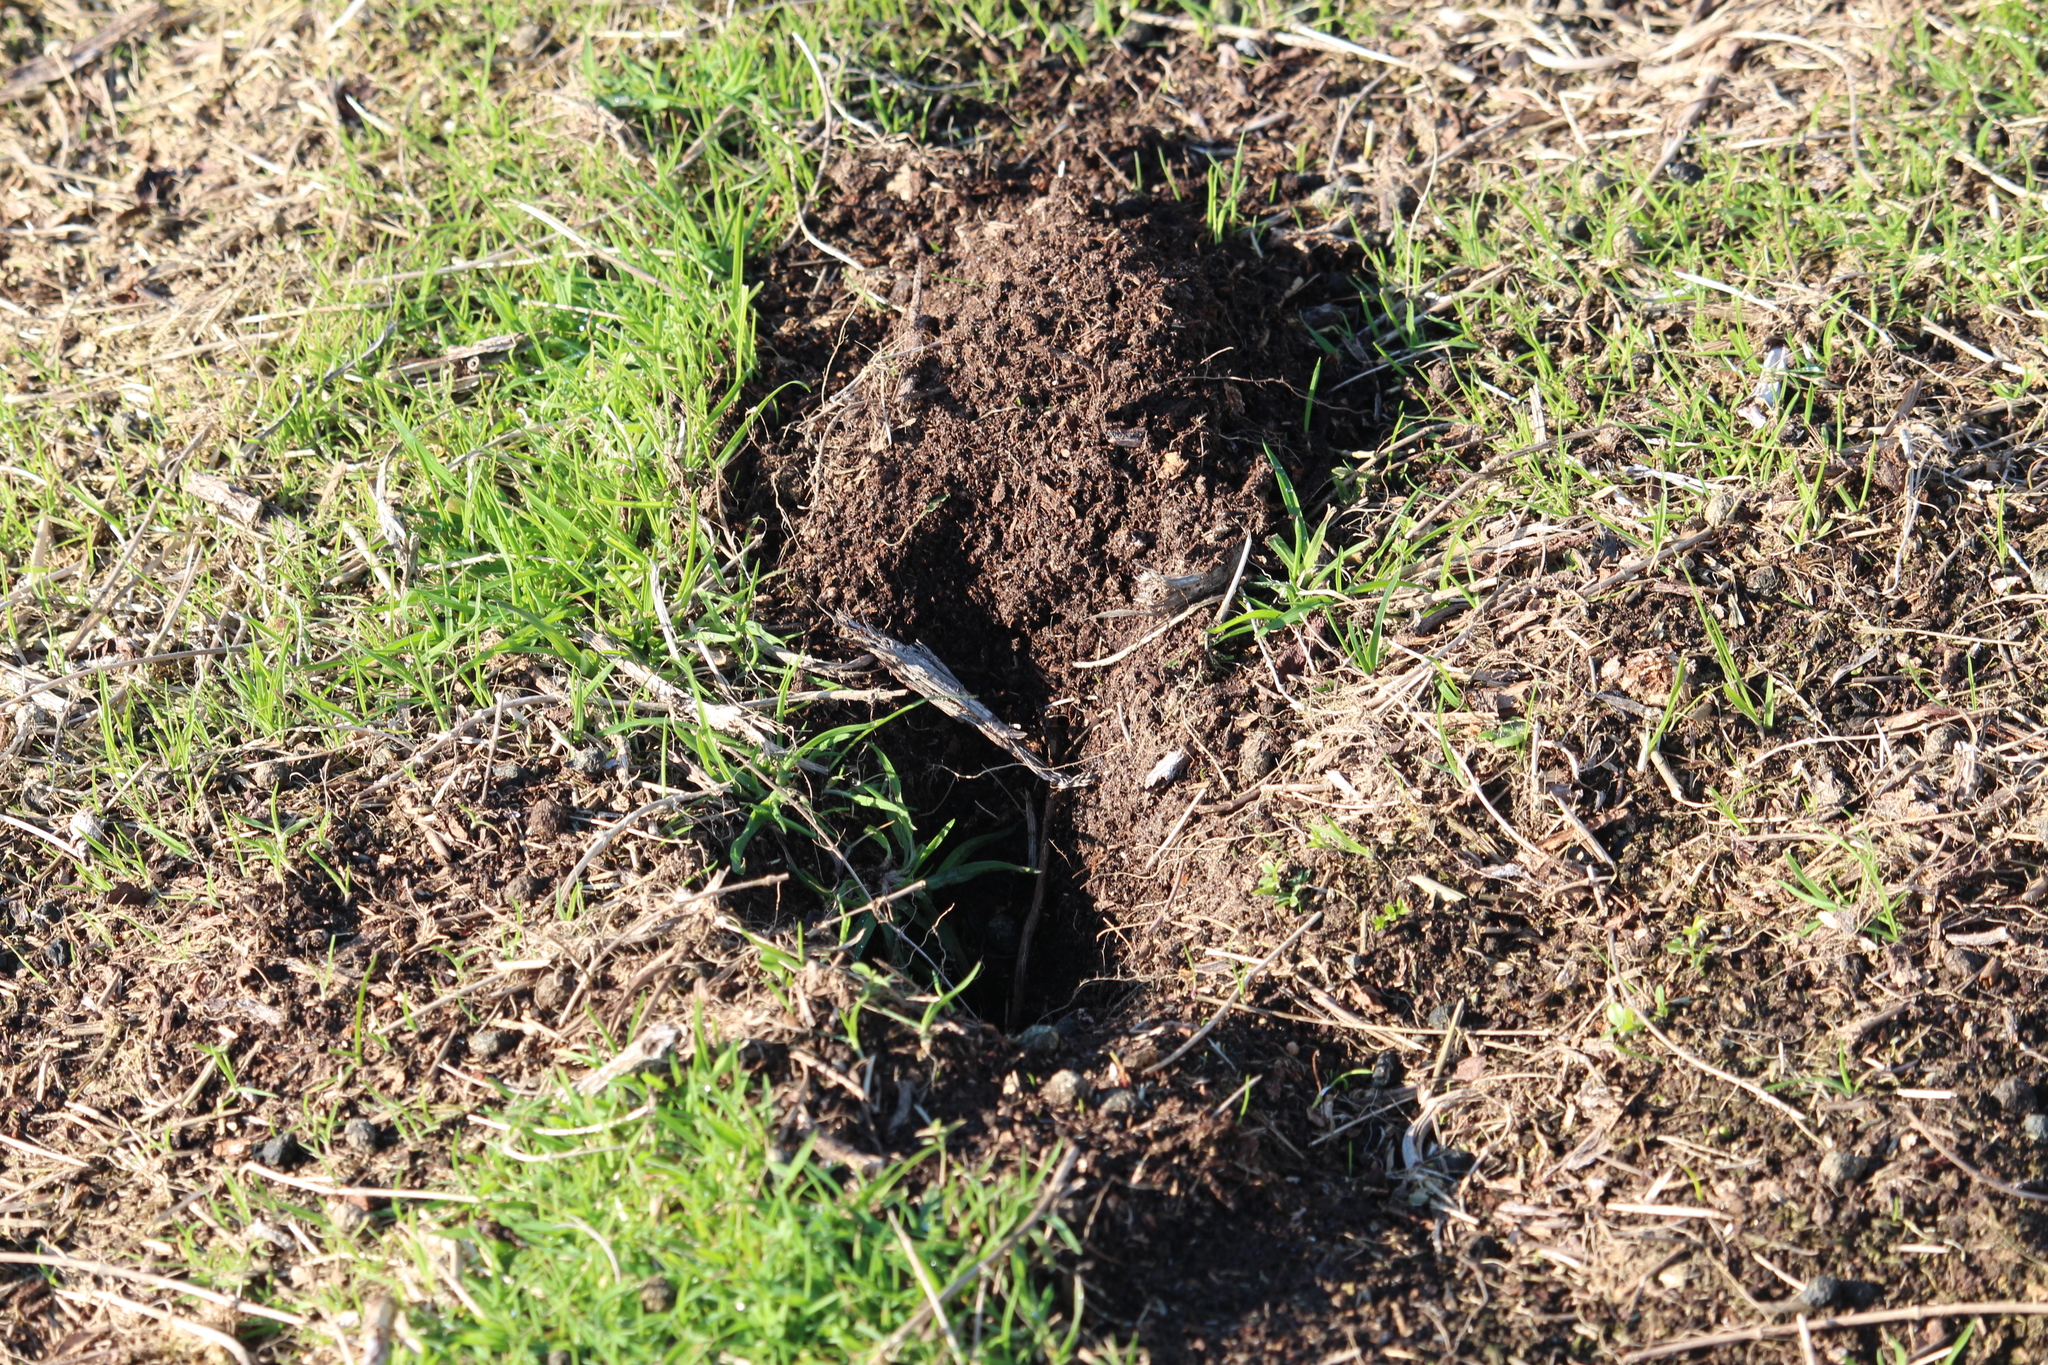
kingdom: Animalia
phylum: Chordata
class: Mammalia
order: Lagomorpha
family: Leporidae
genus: Oryctolagus
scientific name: Oryctolagus cuniculus
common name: European rabbit
